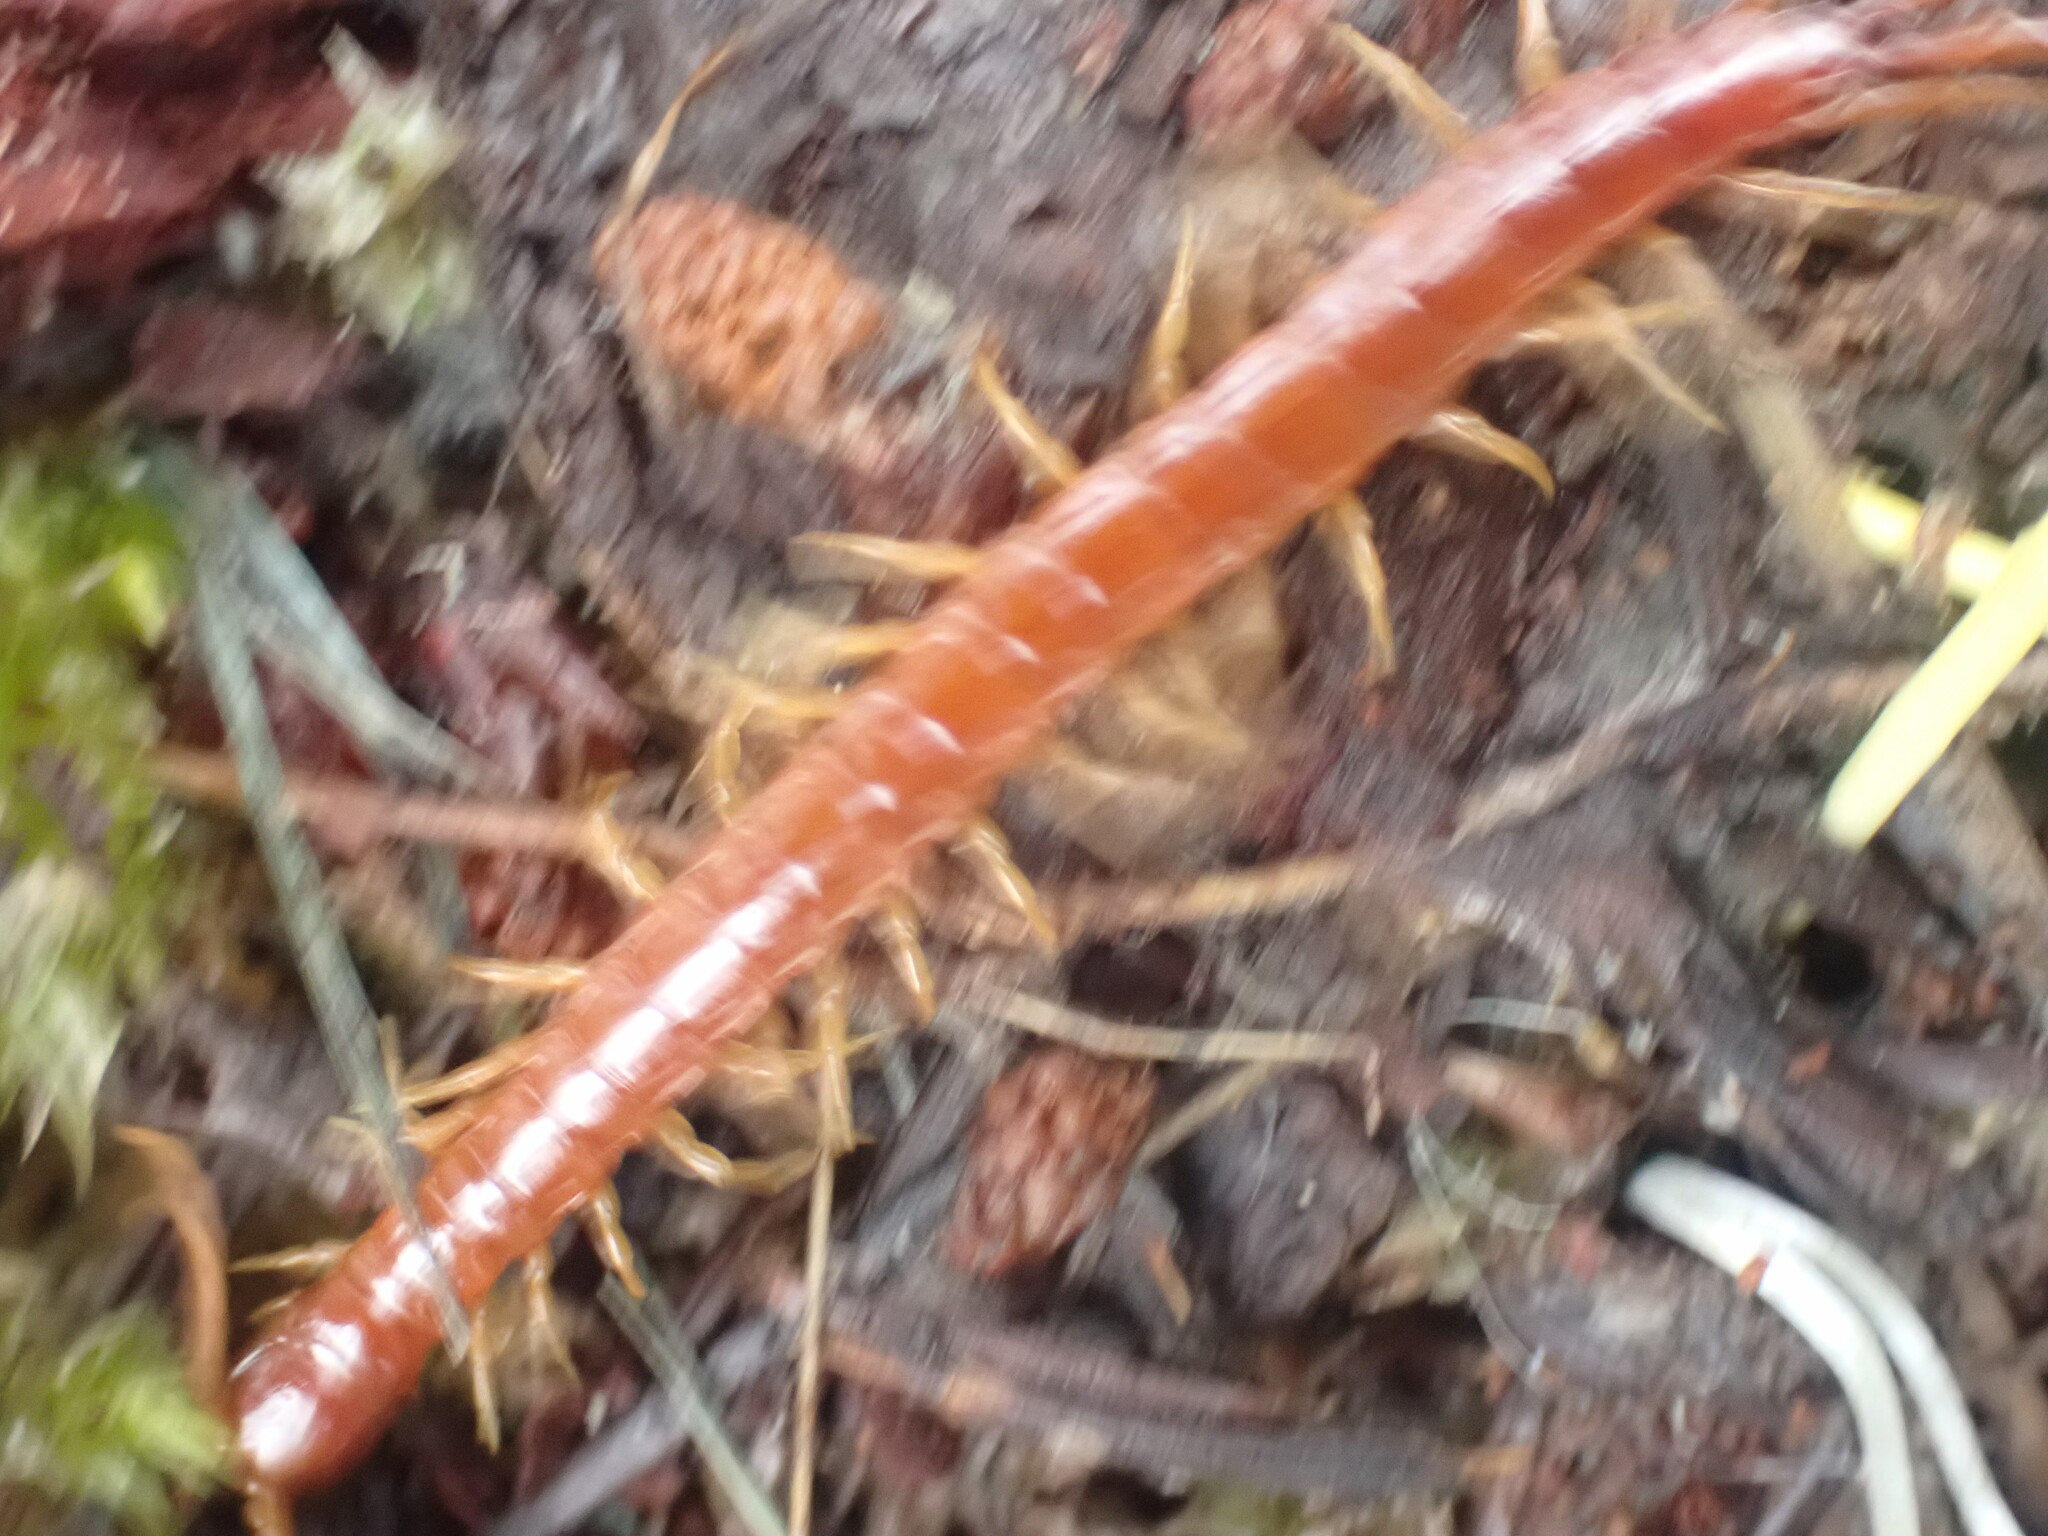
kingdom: Animalia
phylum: Arthropoda
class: Chilopoda
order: Scolopendromorpha
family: Scolopocryptopidae
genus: Scolopocryptops
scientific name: Scolopocryptops spinicaudus
